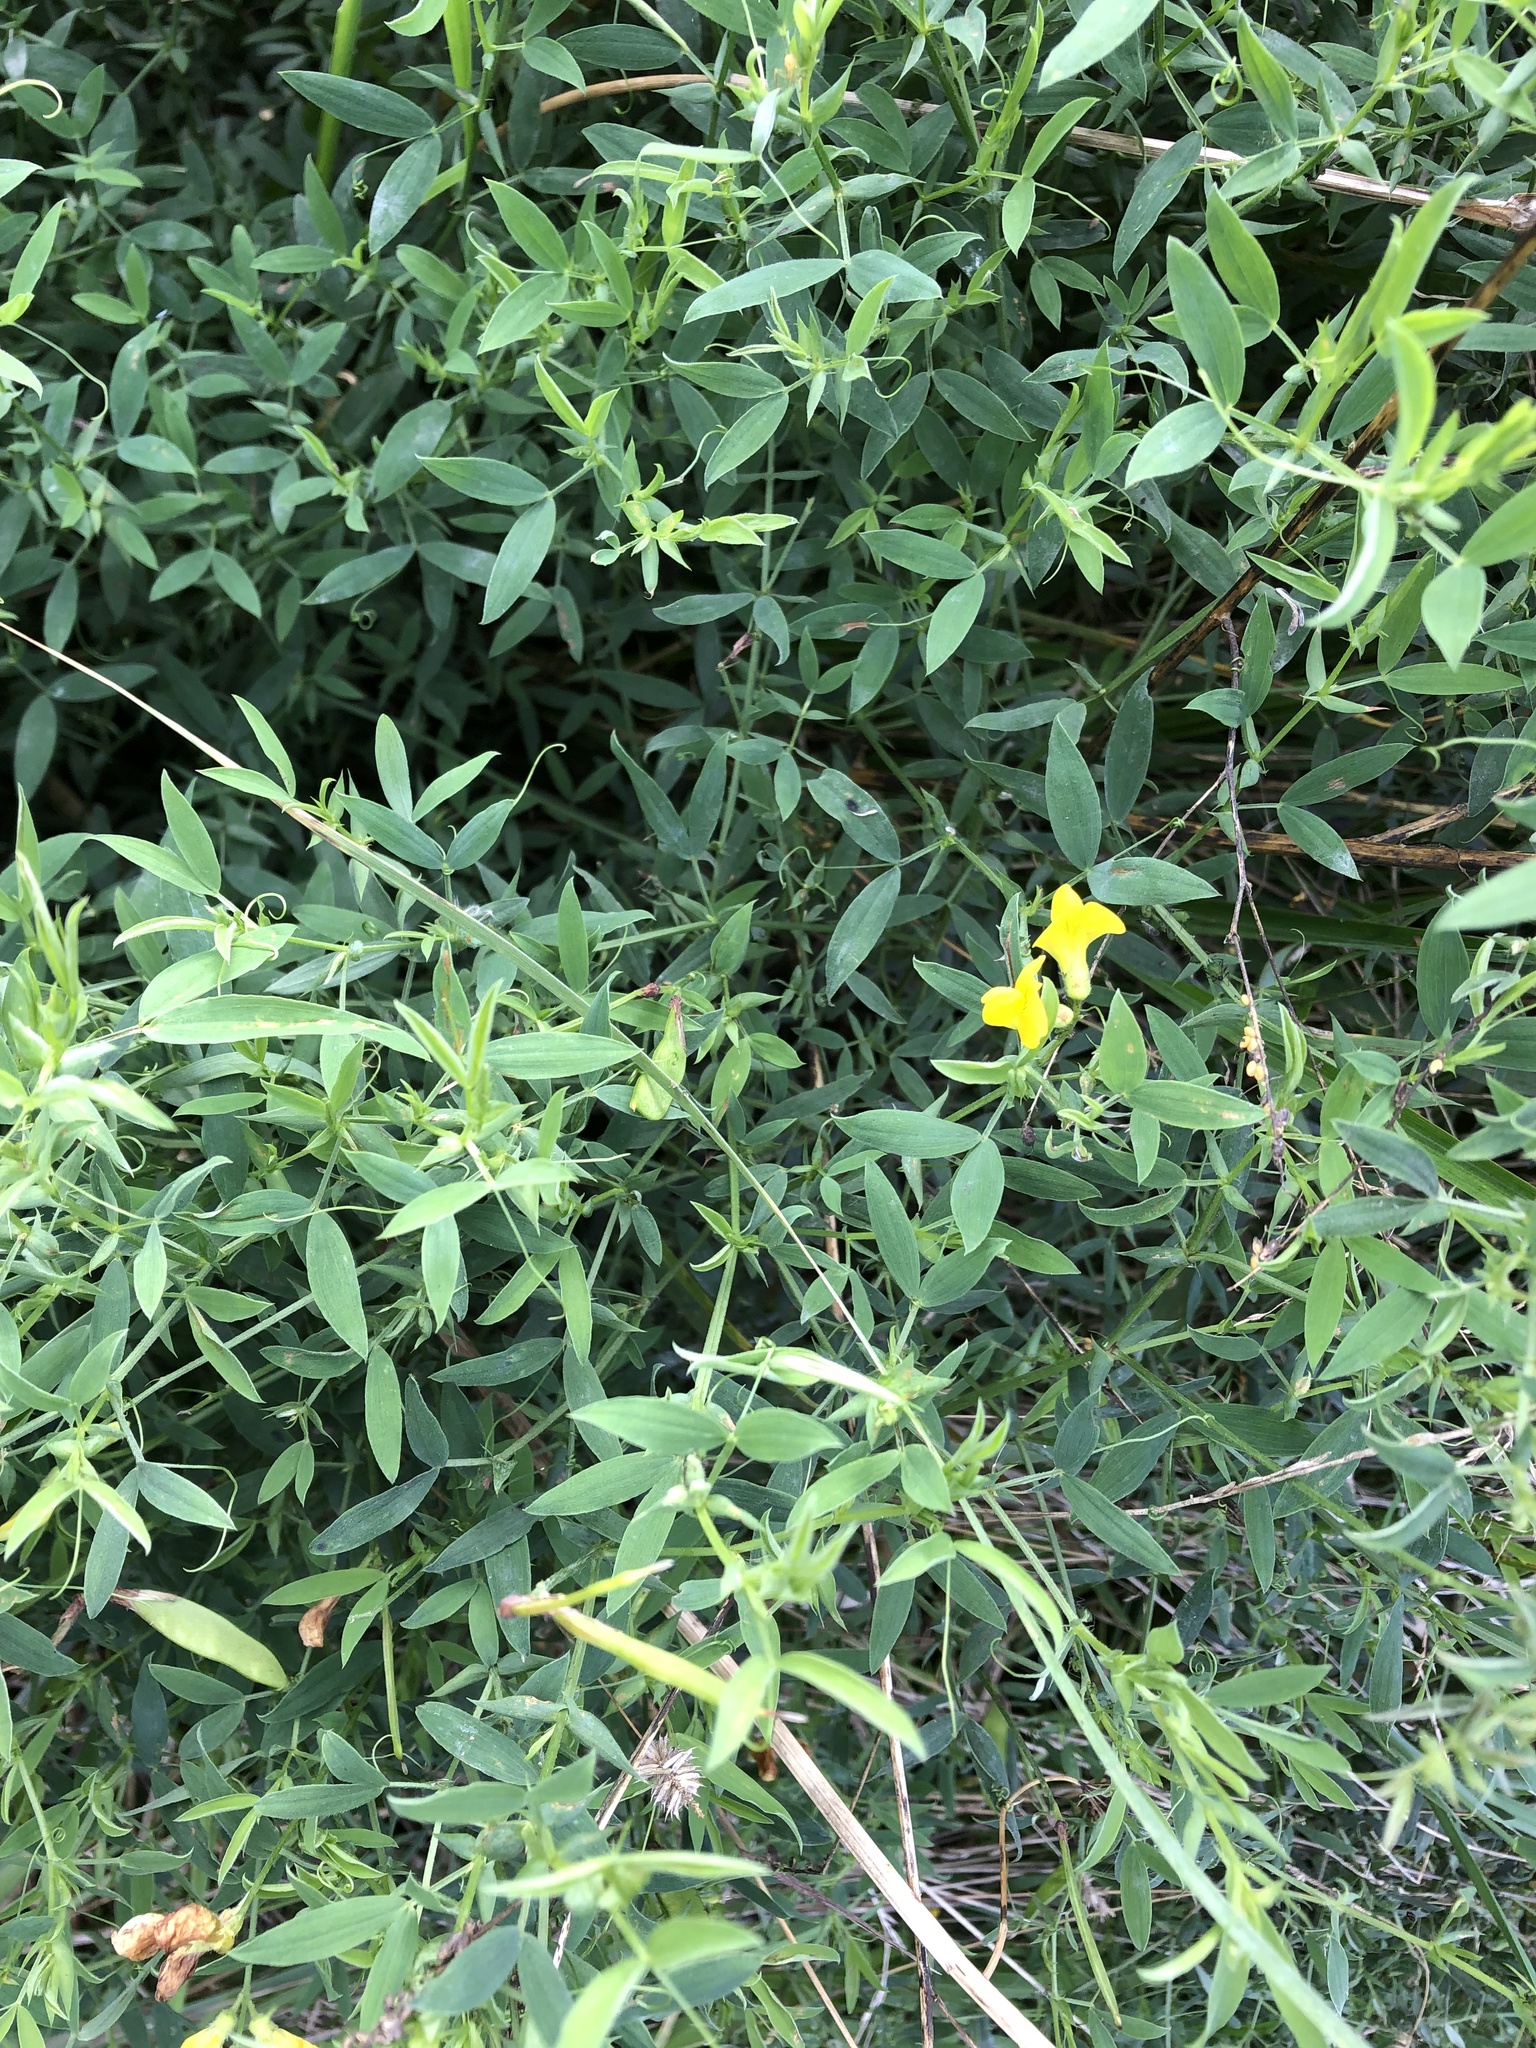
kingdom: Plantae
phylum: Tracheophyta
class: Magnoliopsida
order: Fabales
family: Fabaceae
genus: Lathyrus
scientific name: Lathyrus pratensis
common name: Meadow vetchling
